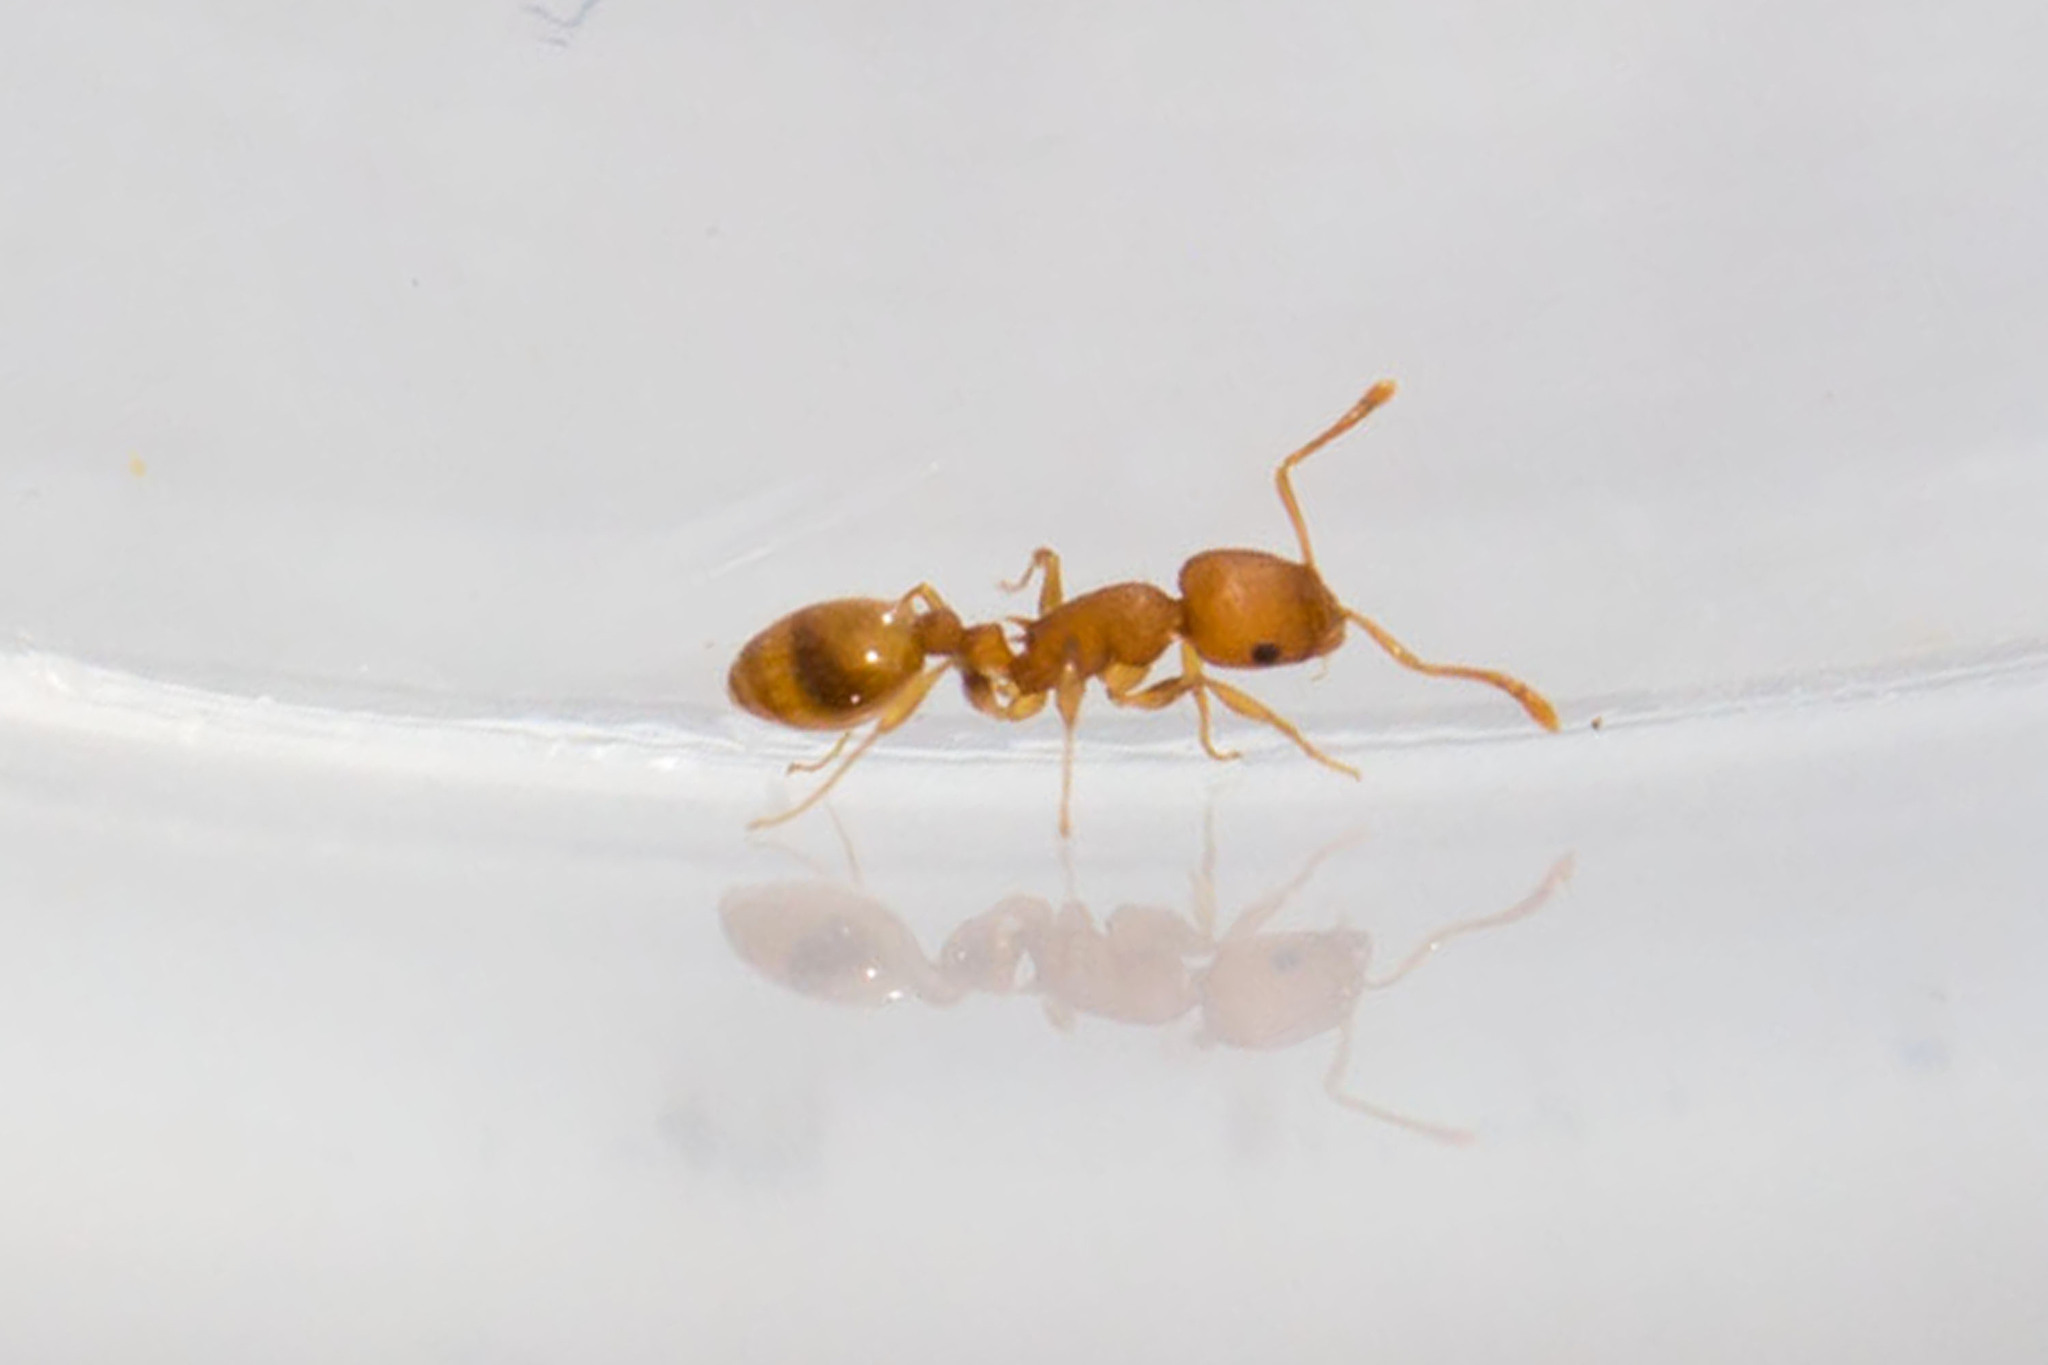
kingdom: Animalia
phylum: Arthropoda
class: Insecta
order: Hymenoptera
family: Formicidae
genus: Temnothorax
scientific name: Temnothorax ambiguus
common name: Doubtful acorn ant
